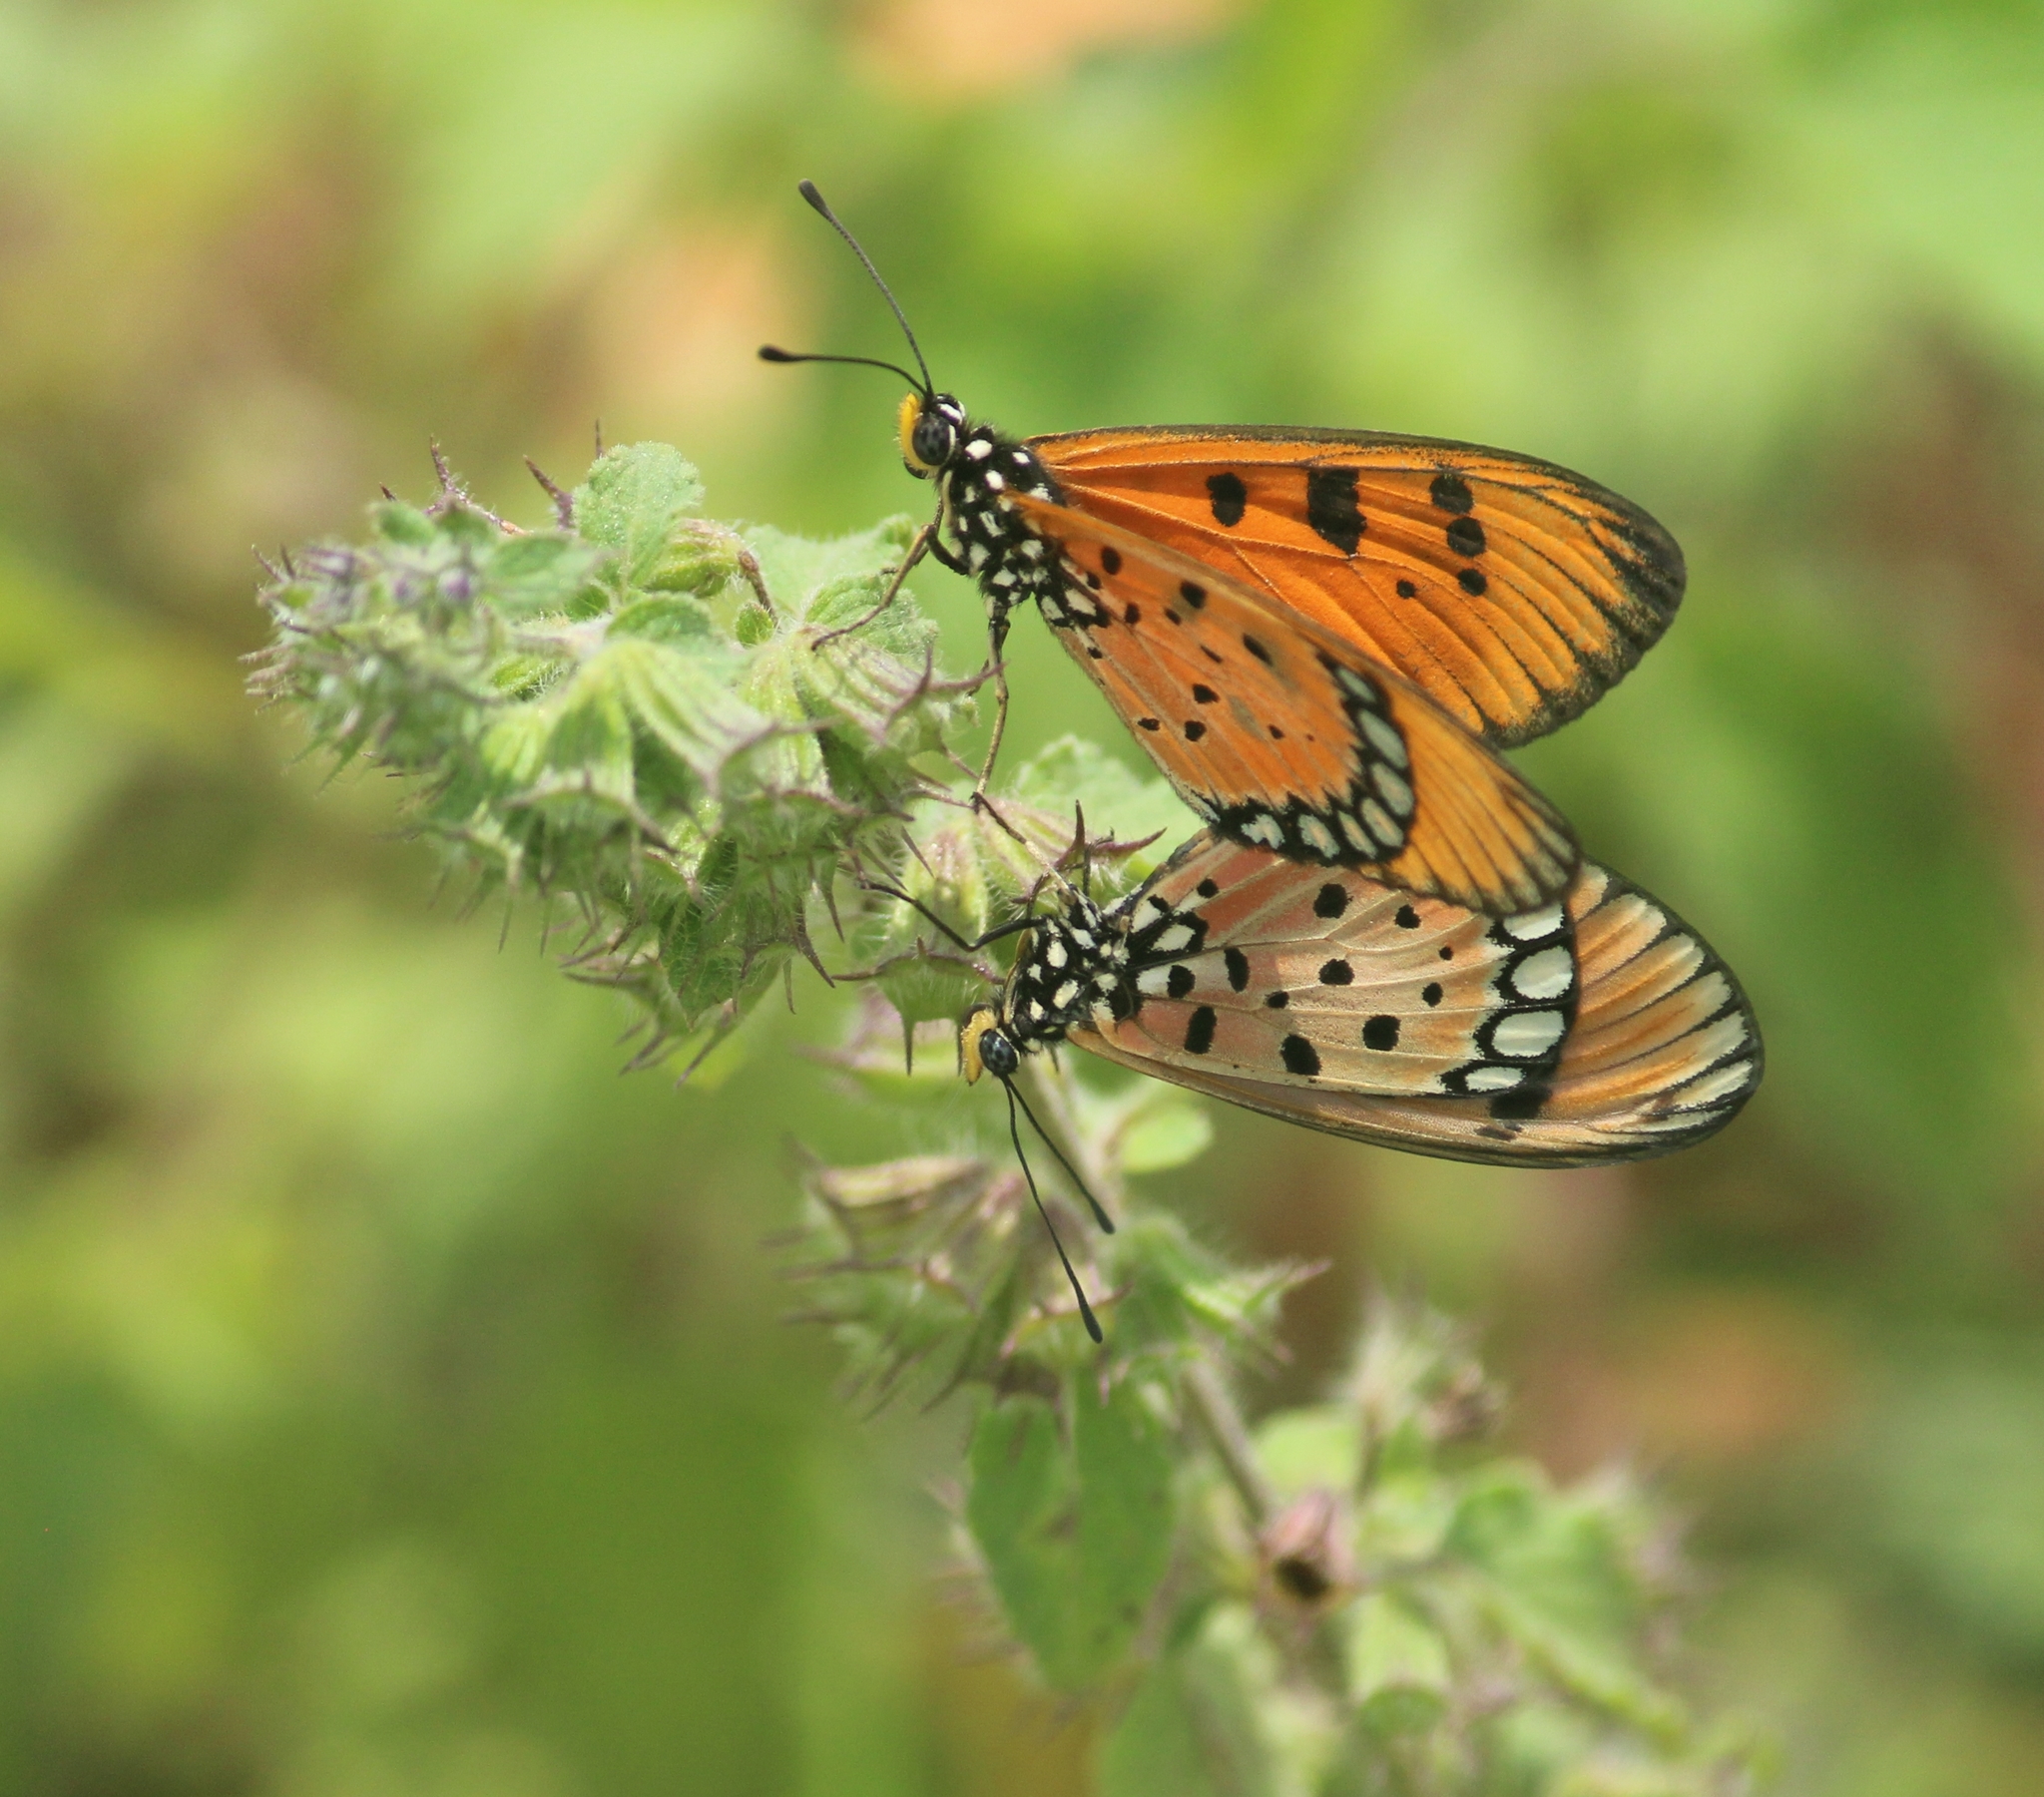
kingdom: Animalia
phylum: Arthropoda
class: Insecta
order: Lepidoptera
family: Nymphalidae
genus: Acraea
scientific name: Acraea terpsicore
